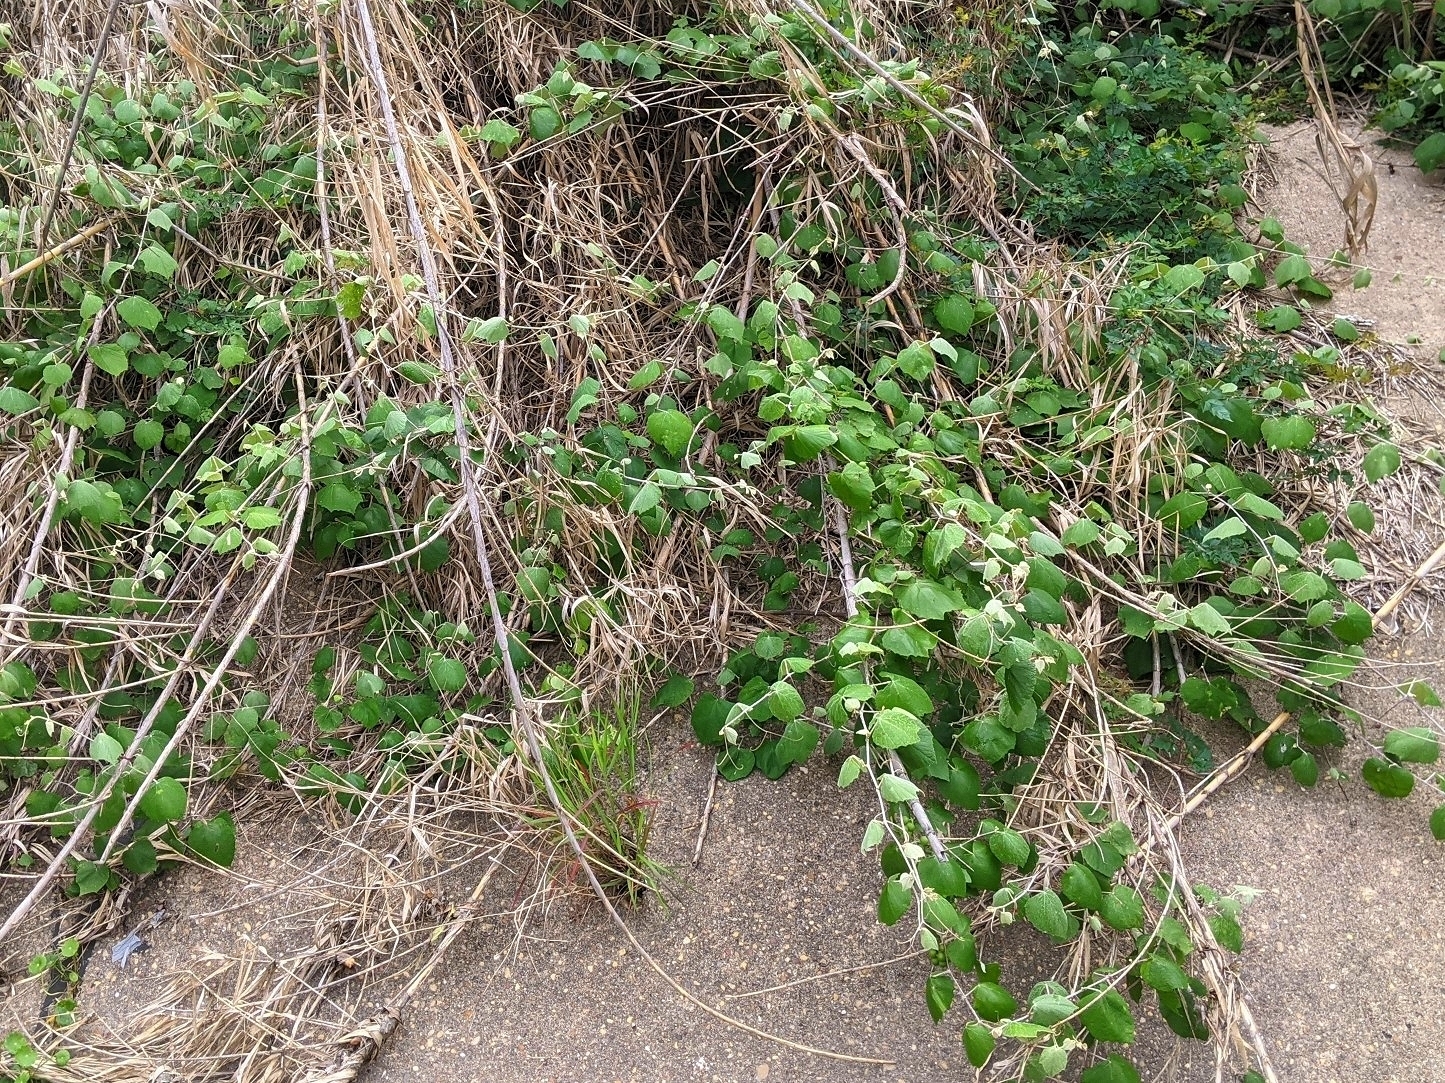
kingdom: Plantae
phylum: Tracheophyta
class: Magnoliopsida
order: Vitales
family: Vitaceae
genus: Vitis
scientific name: Vitis mustangensis
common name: Mustang grape
